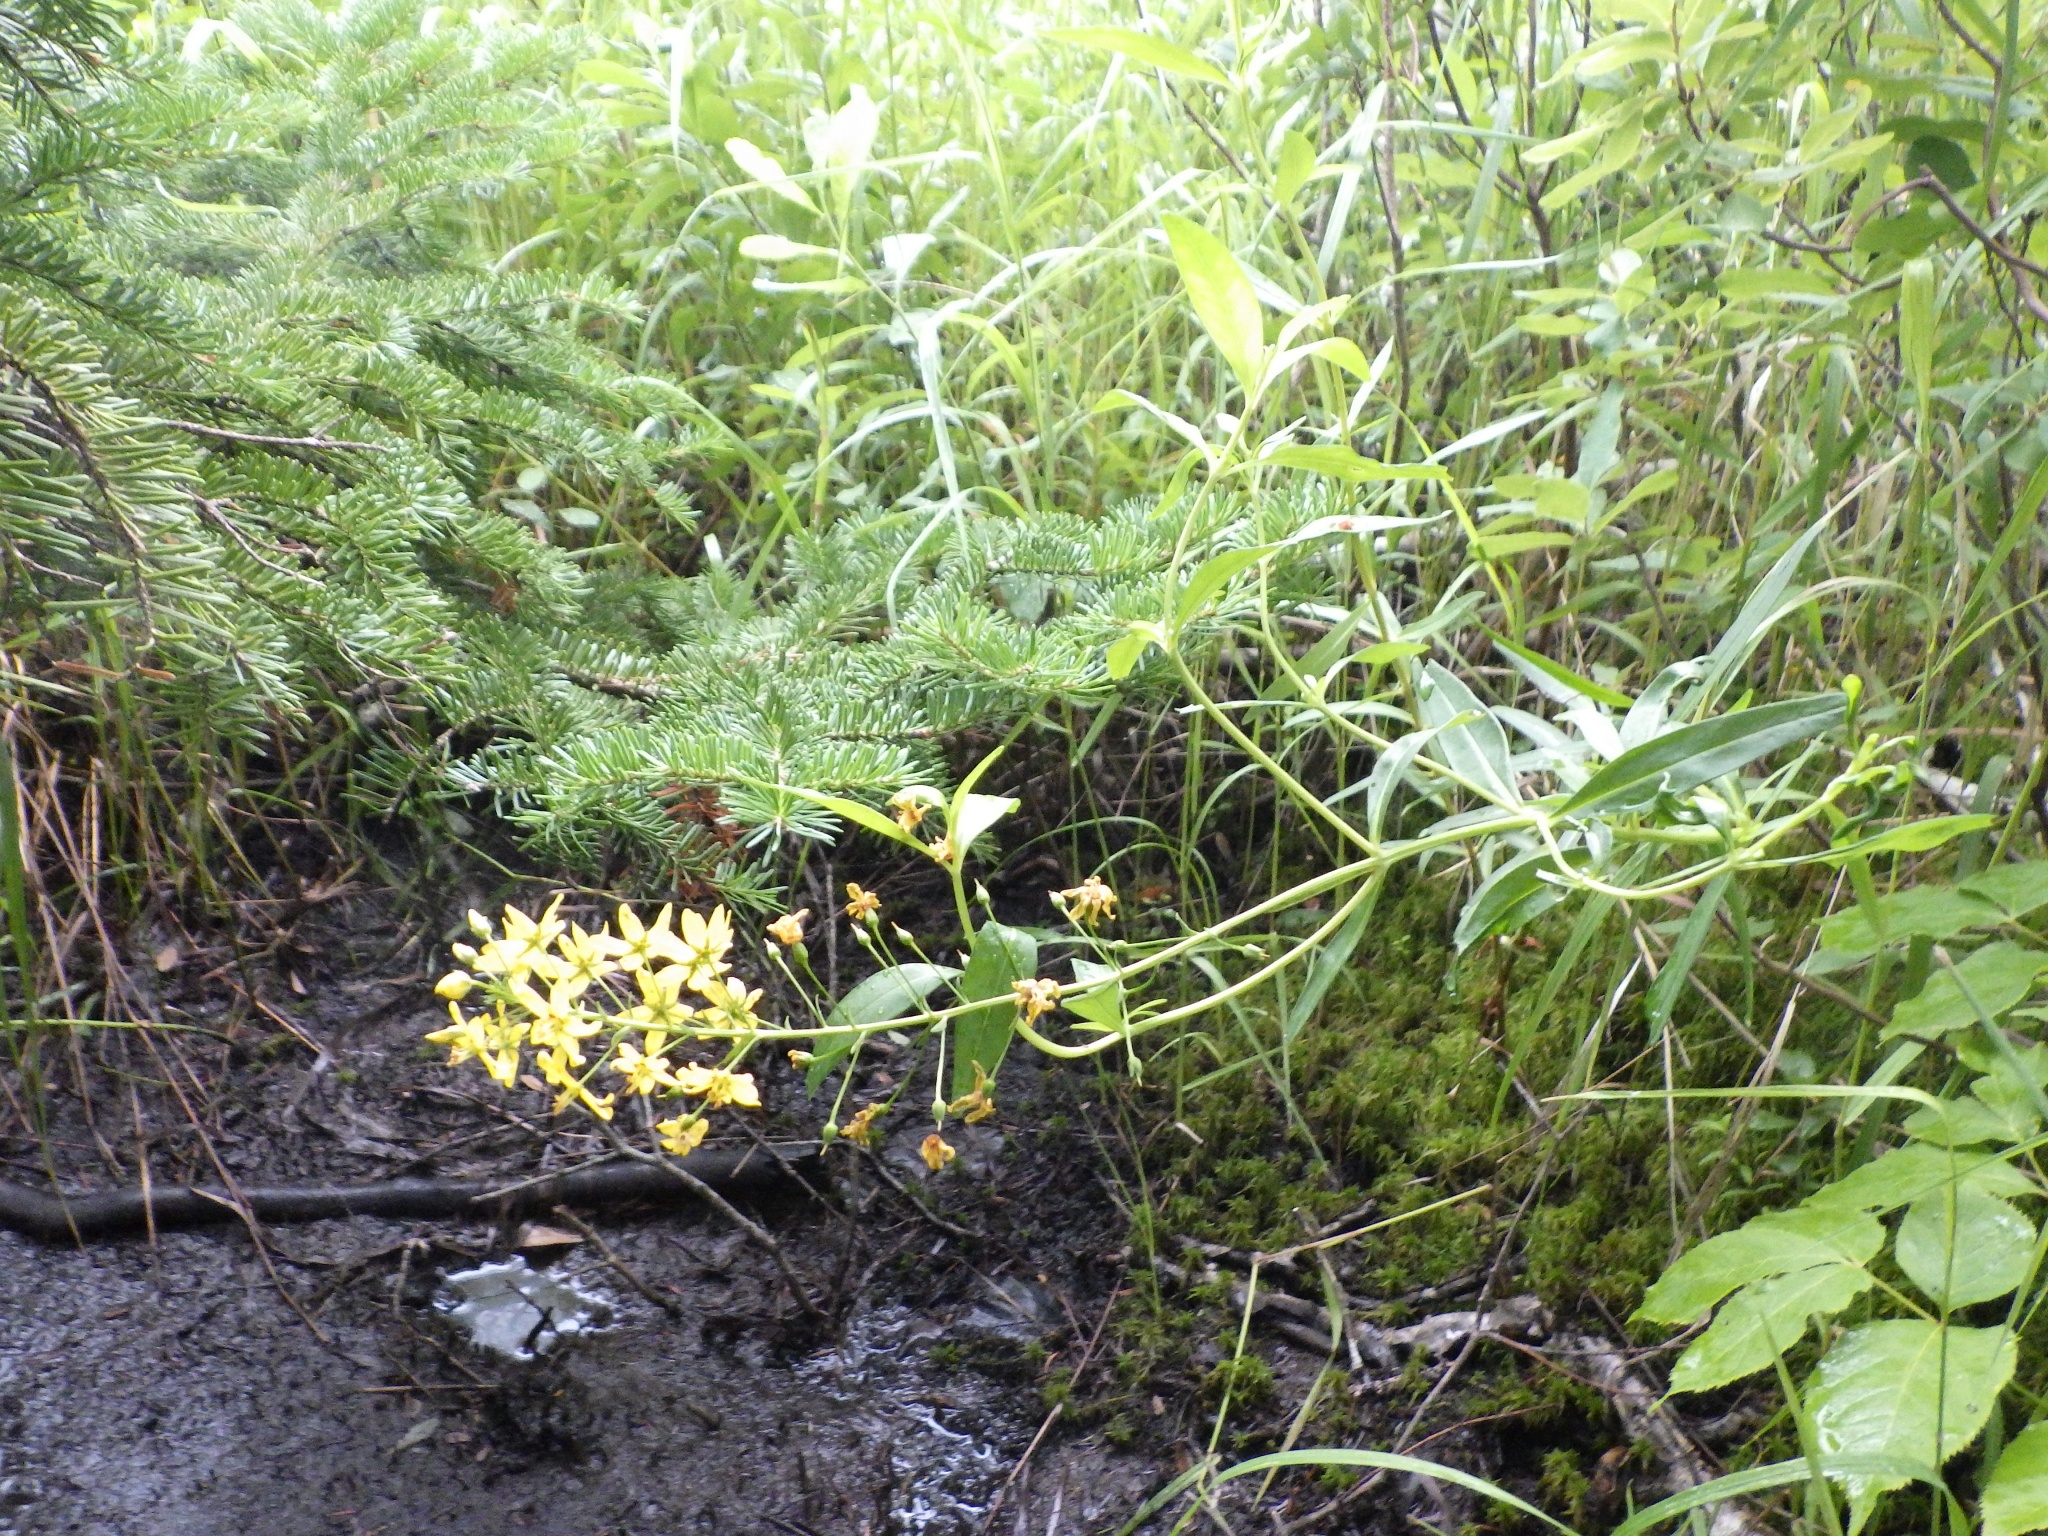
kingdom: Plantae
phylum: Tracheophyta
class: Magnoliopsida
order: Ericales
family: Primulaceae
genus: Lysimachia
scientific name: Lysimachia terrestris
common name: Lake loosestrife
